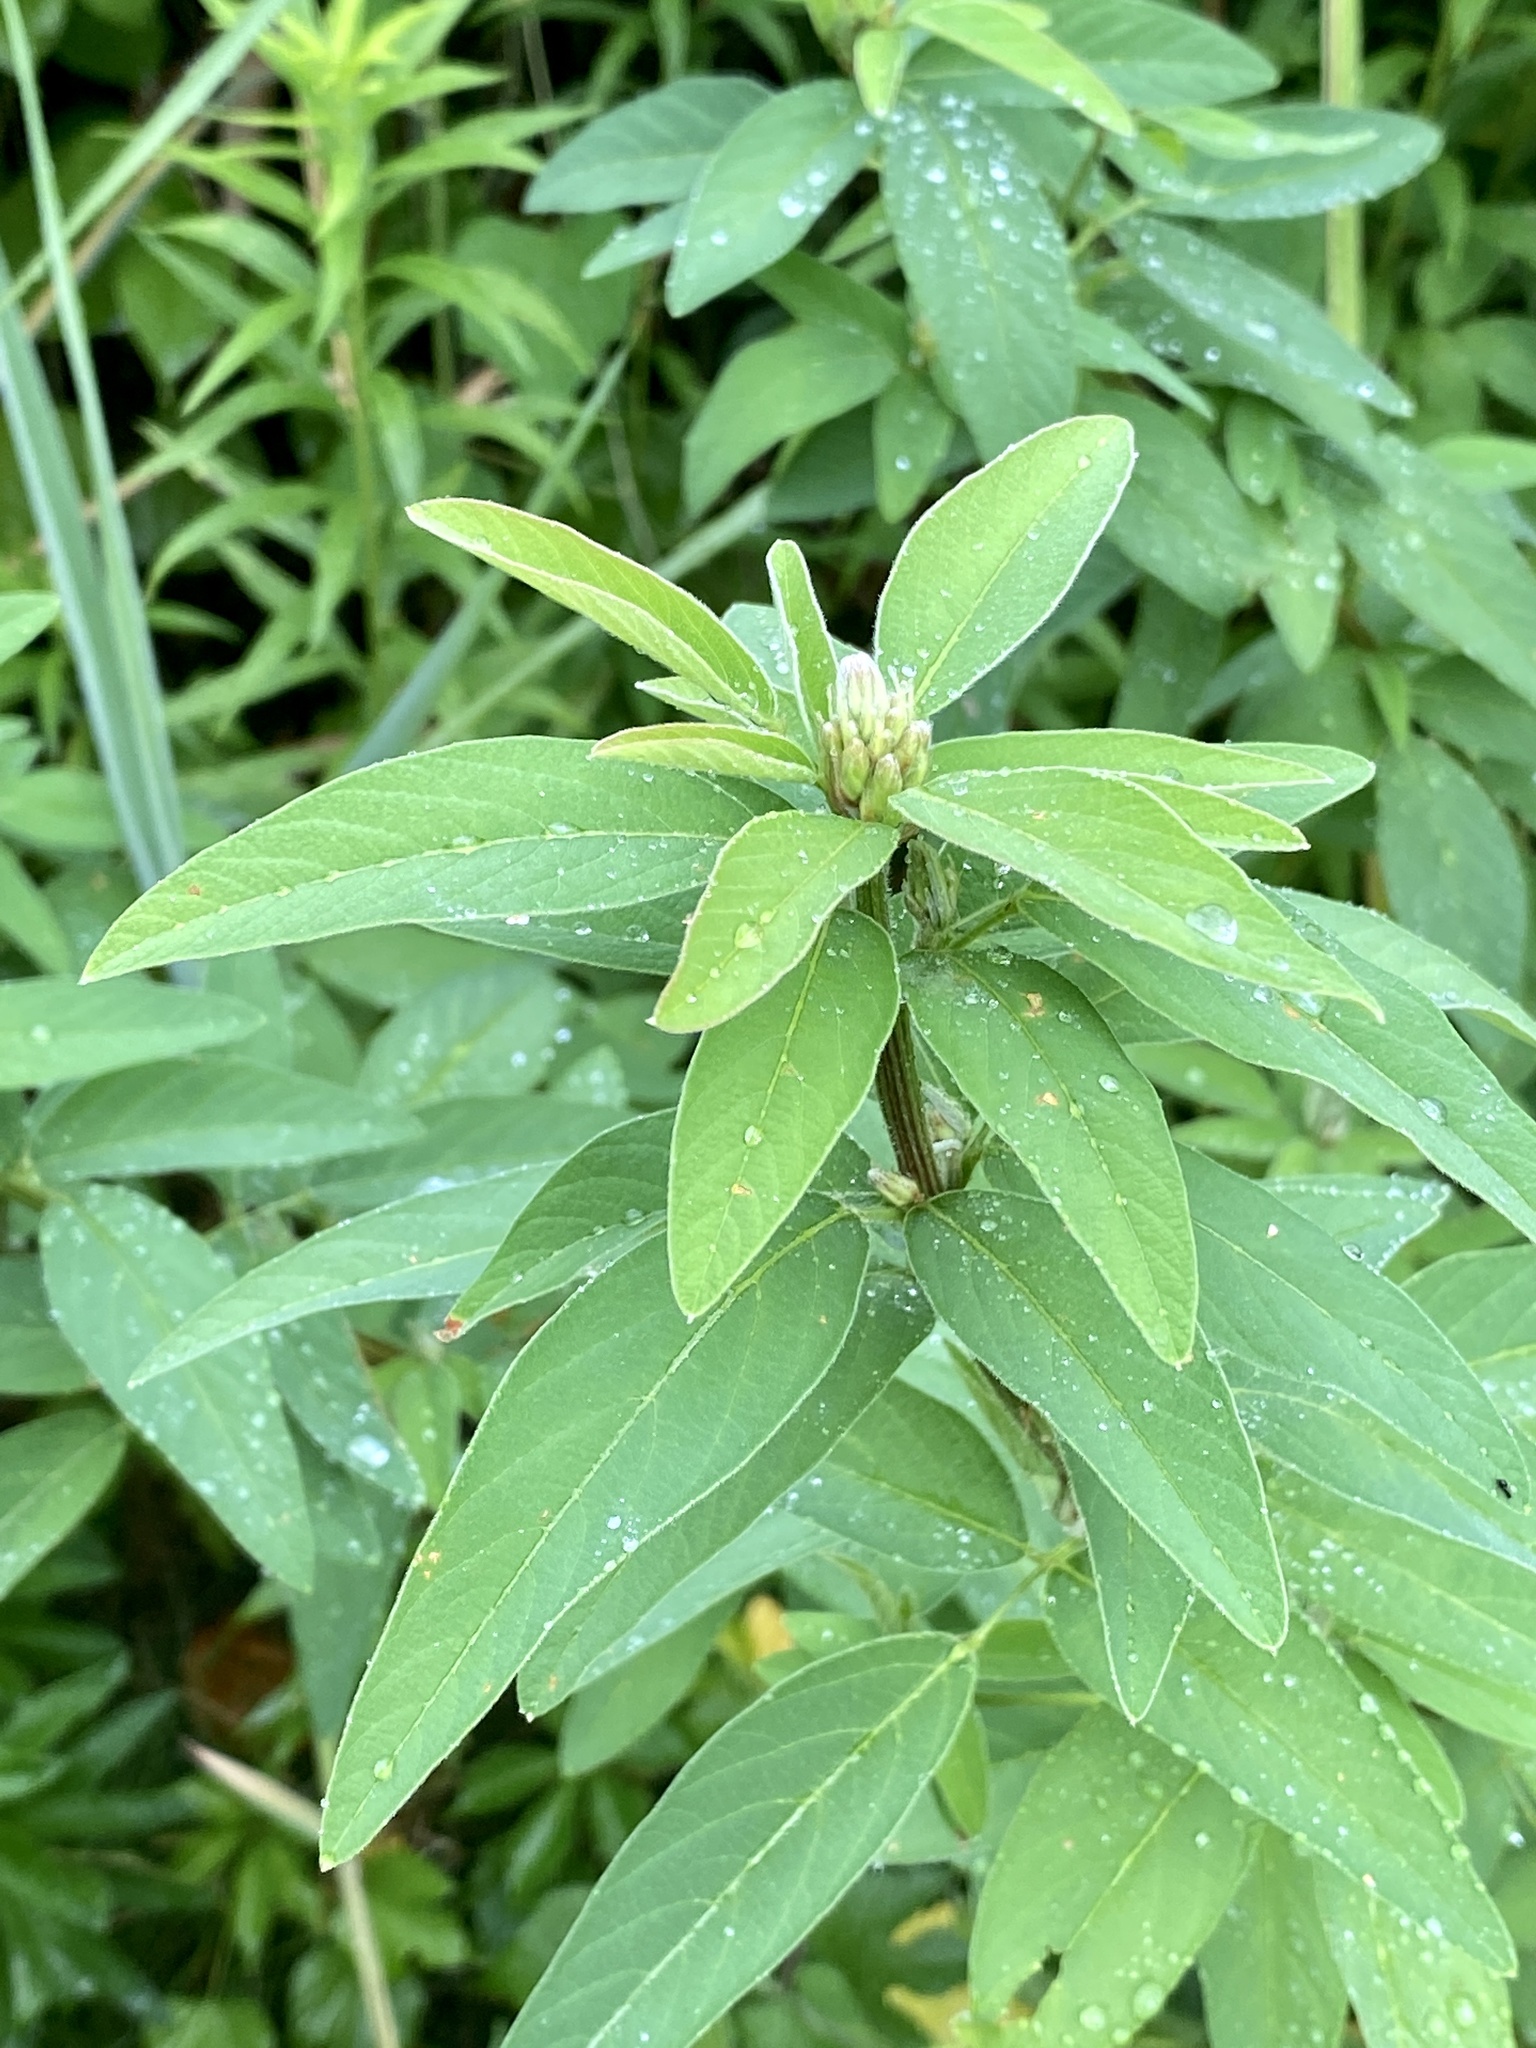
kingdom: Plantae
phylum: Tracheophyta
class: Magnoliopsida
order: Fabales
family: Fabaceae
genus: Desmodium
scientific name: Desmodium canadense
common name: Canada tick-trefoil
